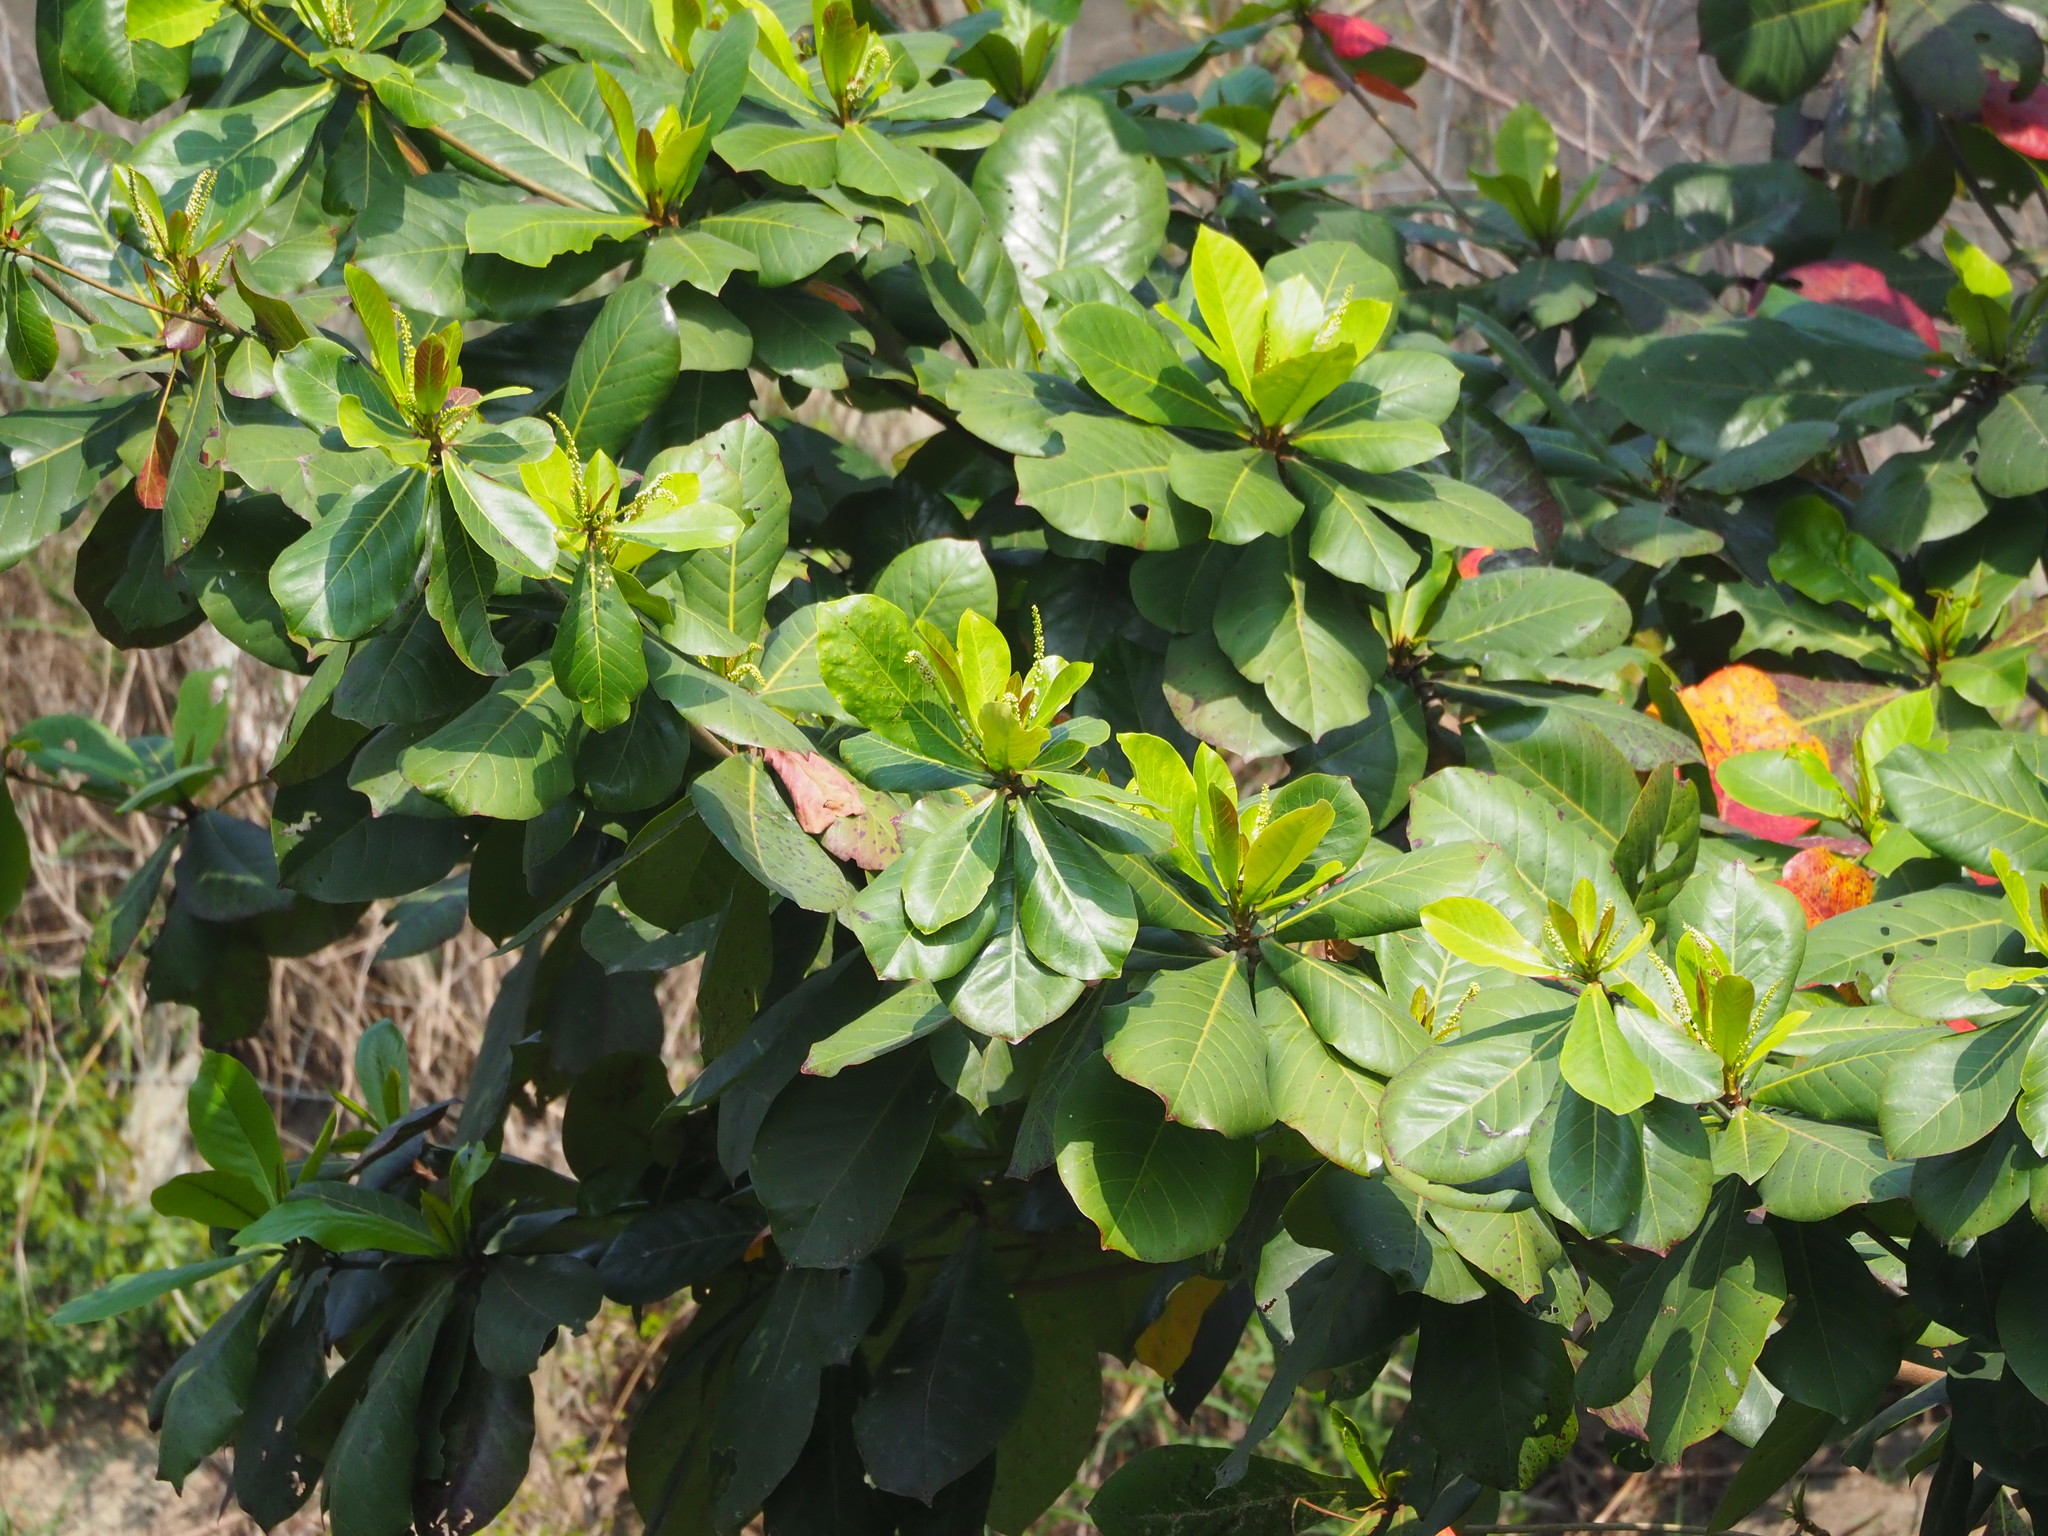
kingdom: Plantae
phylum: Tracheophyta
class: Magnoliopsida
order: Myrtales
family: Combretaceae
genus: Terminalia
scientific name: Terminalia catappa
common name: Tropical almond
